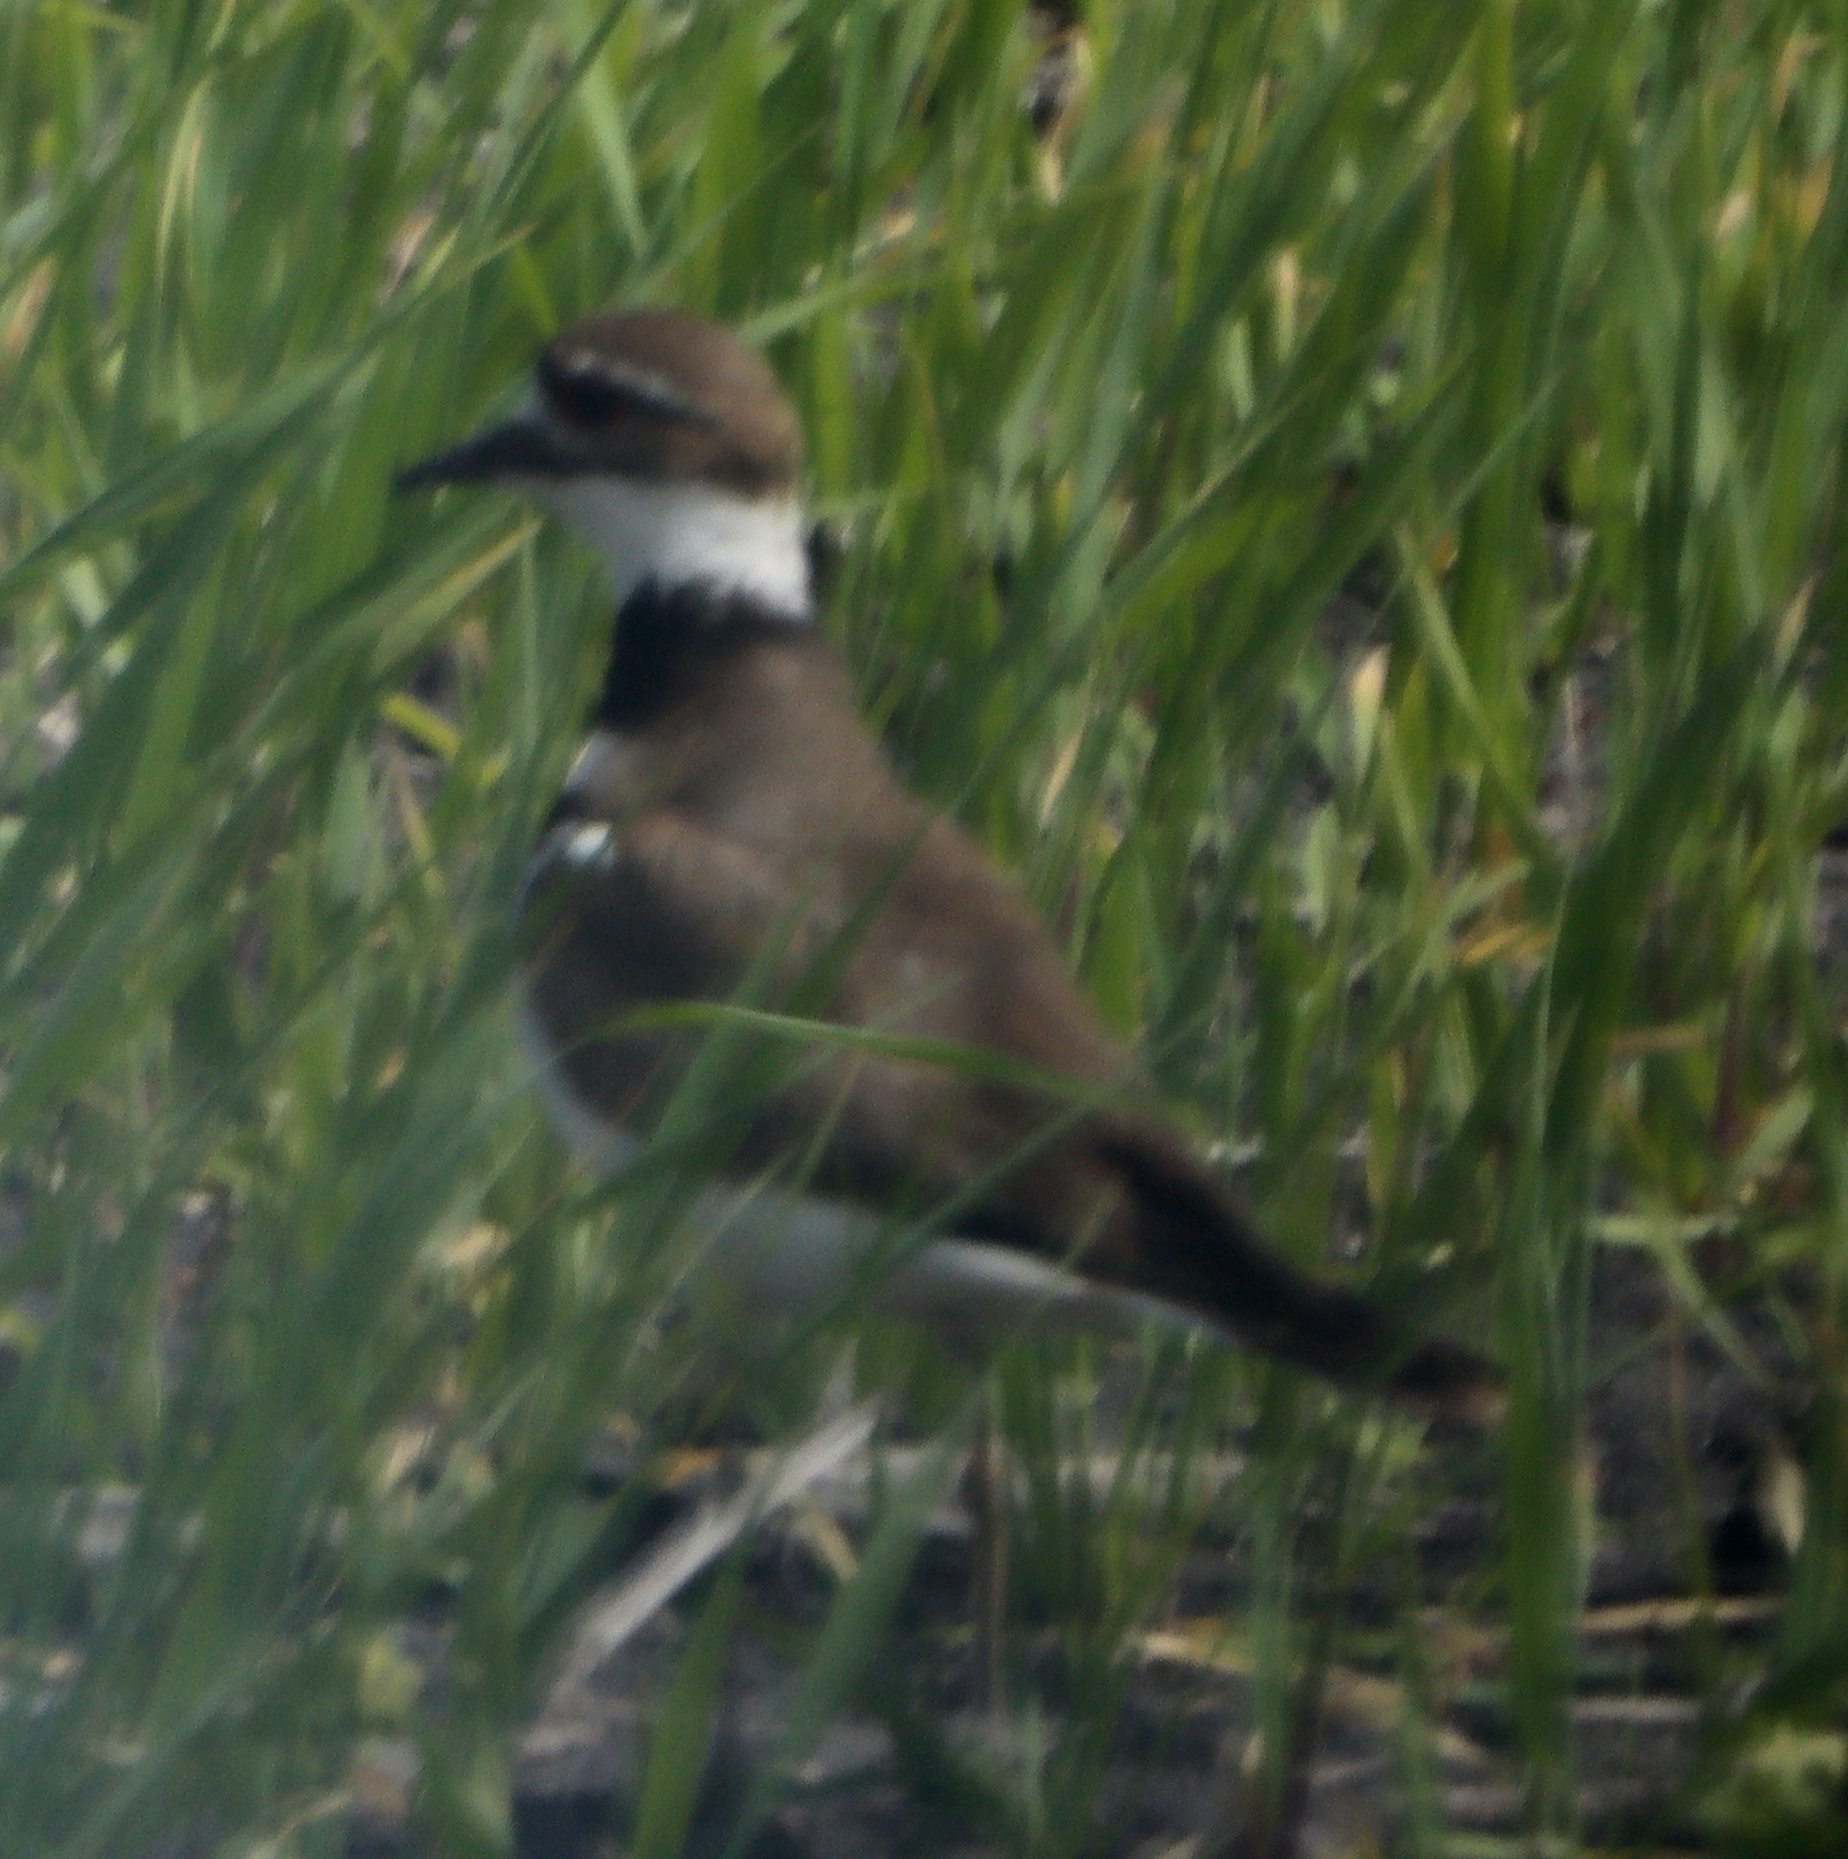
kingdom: Animalia
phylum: Chordata
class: Aves
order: Charadriiformes
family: Charadriidae
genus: Charadrius
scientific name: Charadrius vociferus
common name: Killdeer
